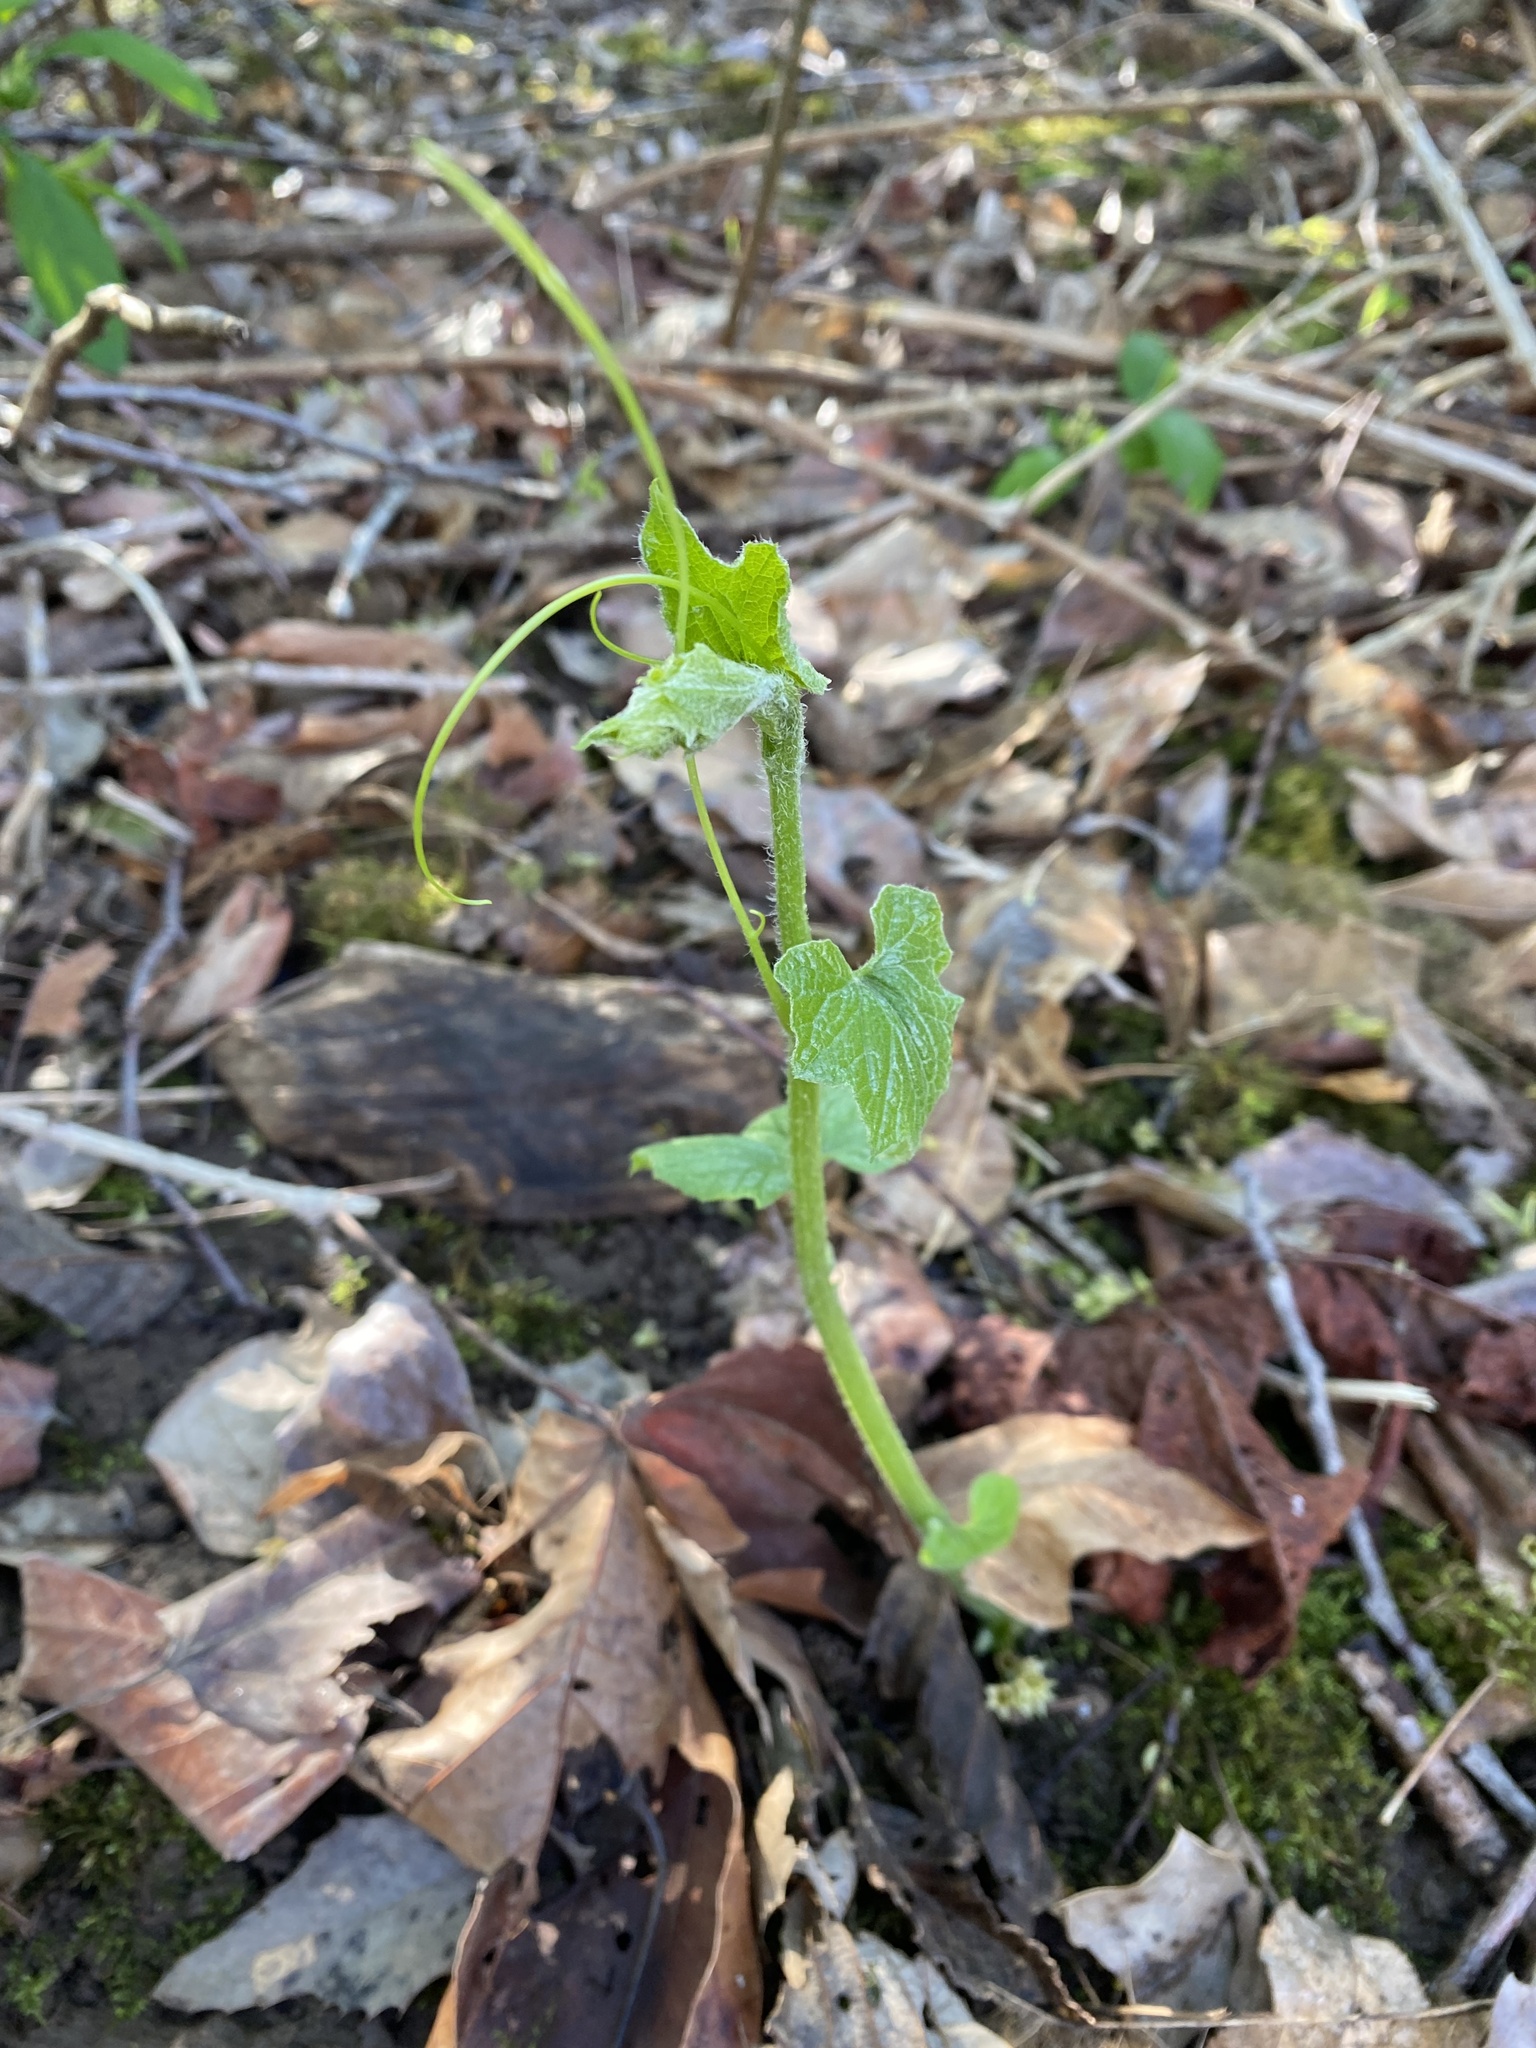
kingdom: Plantae
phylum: Tracheophyta
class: Magnoliopsida
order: Cucurbitales
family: Cucurbitaceae
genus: Marah
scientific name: Marah oregana
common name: Coastal manroot
